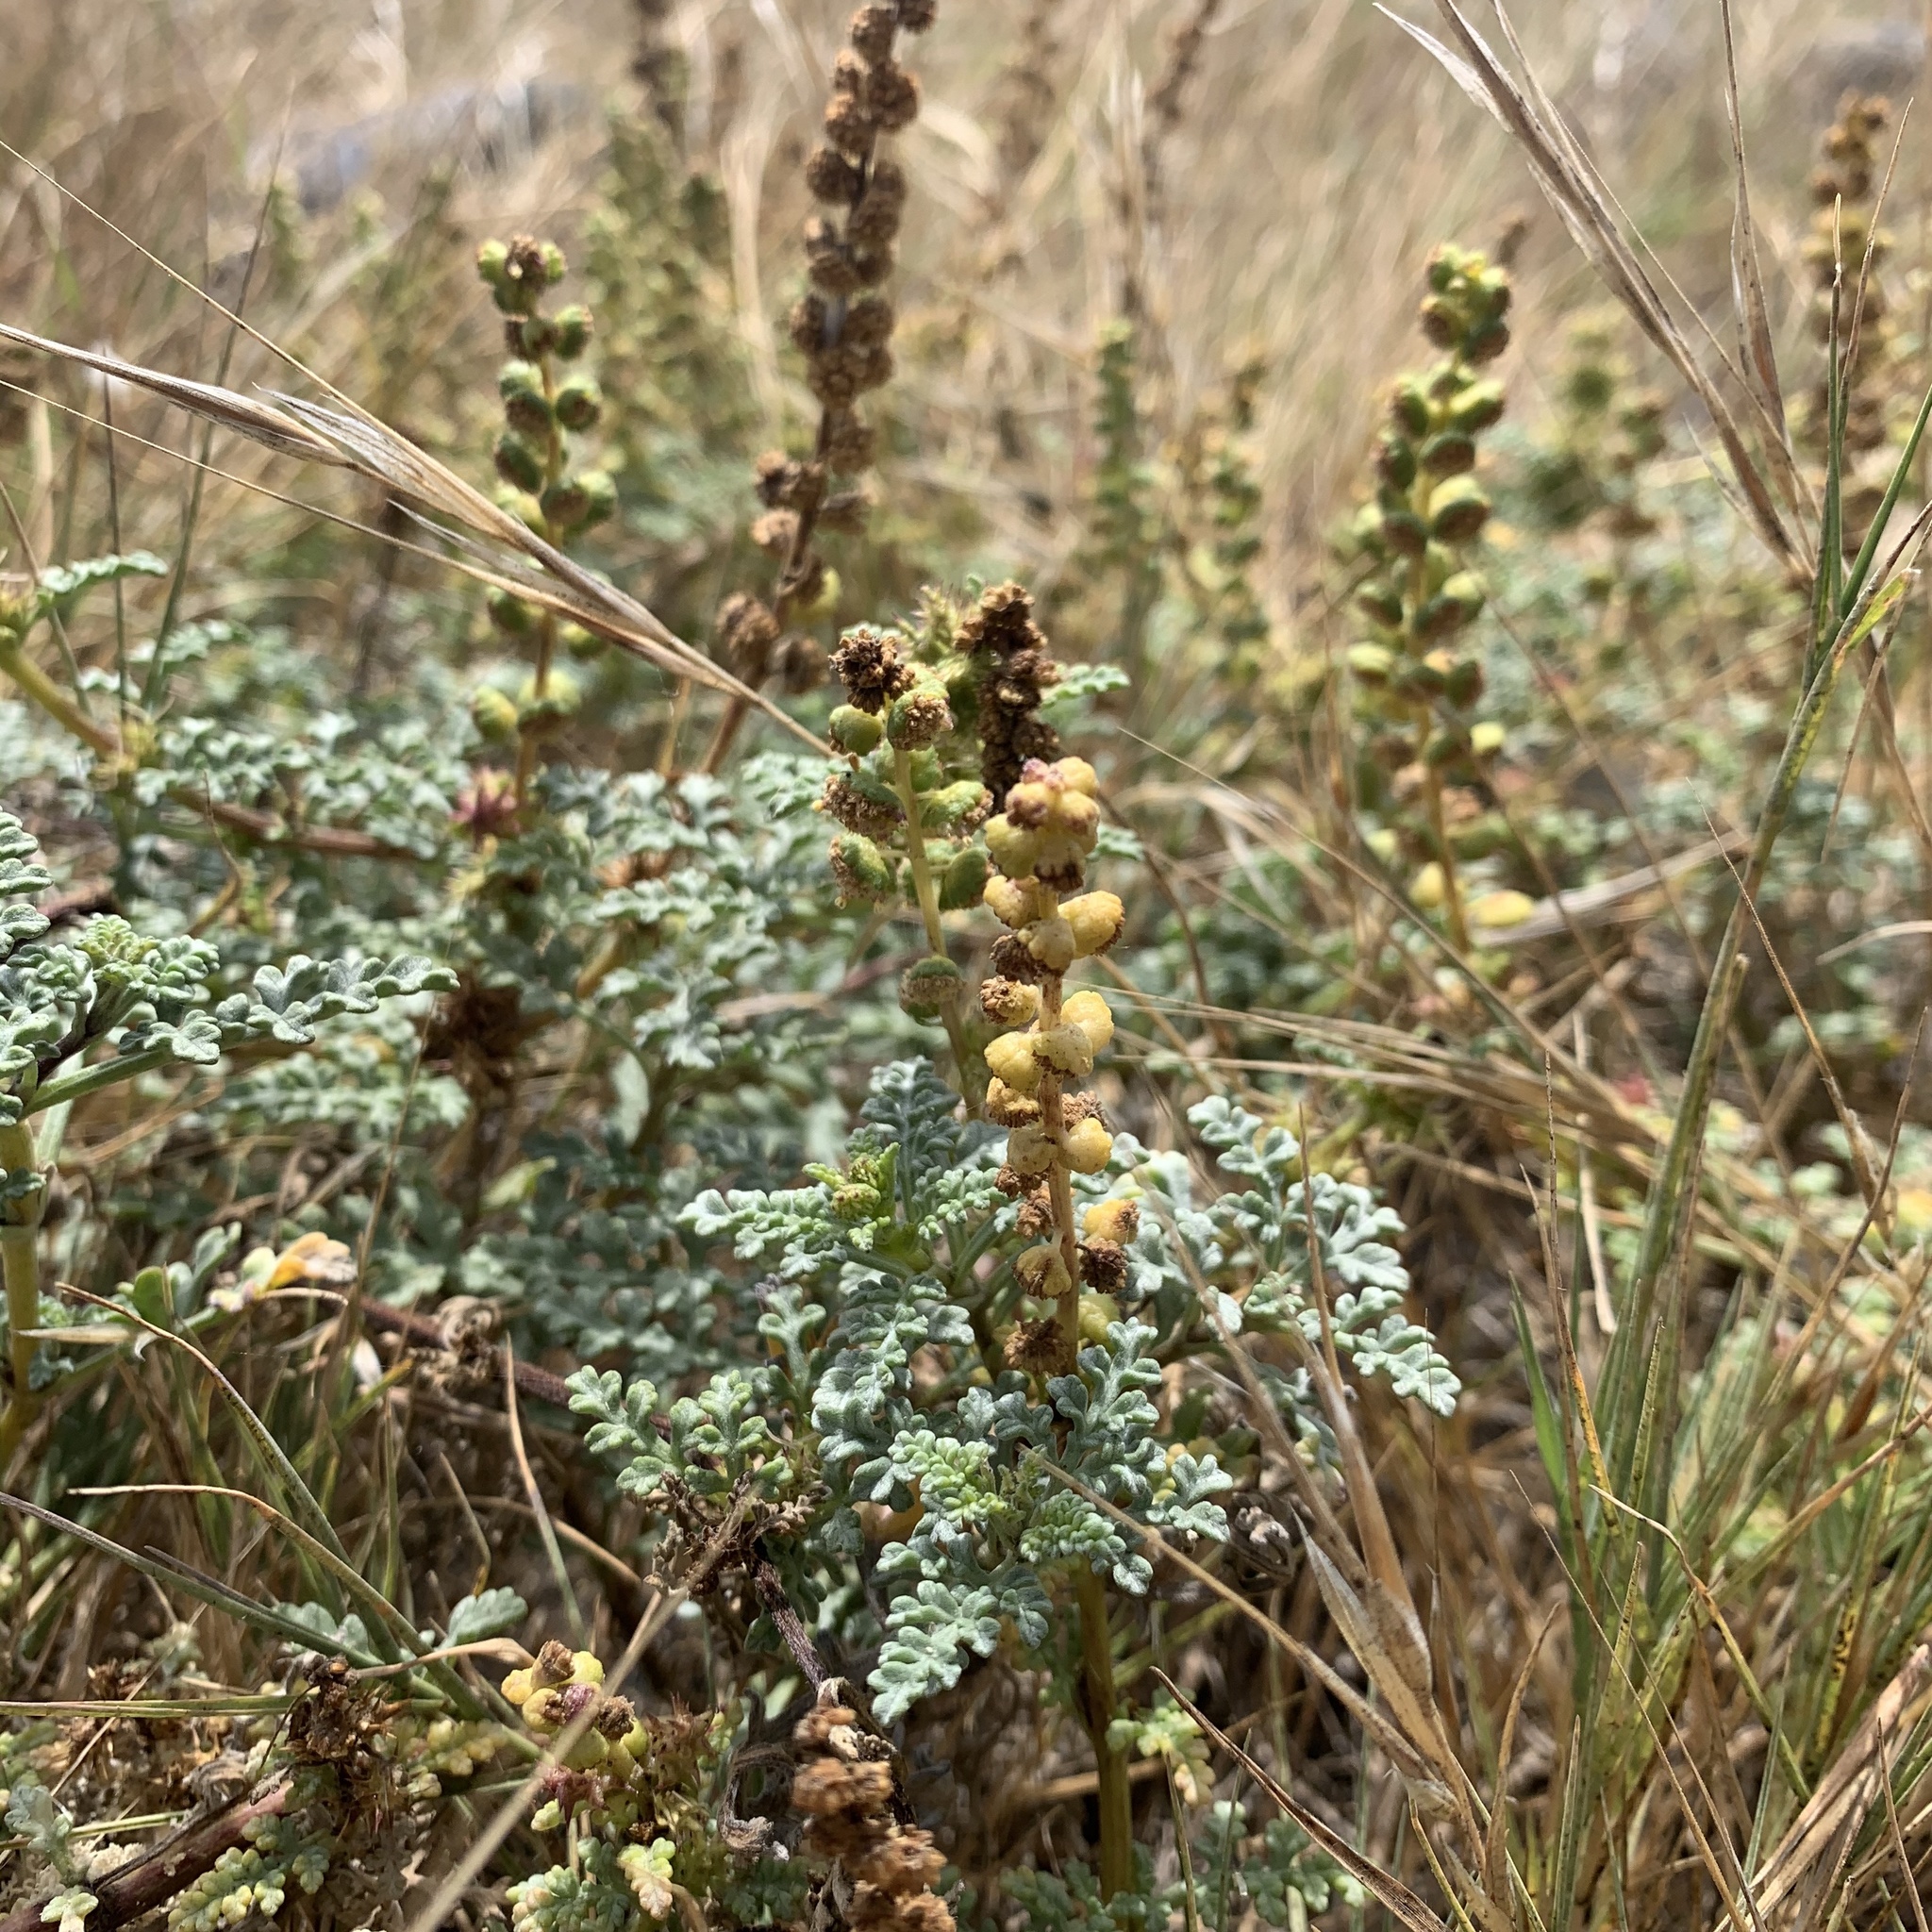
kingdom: Plantae
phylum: Tracheophyta
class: Magnoliopsida
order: Asterales
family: Asteraceae
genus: Ambrosia
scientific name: Ambrosia chamissonis
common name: Beachbur
